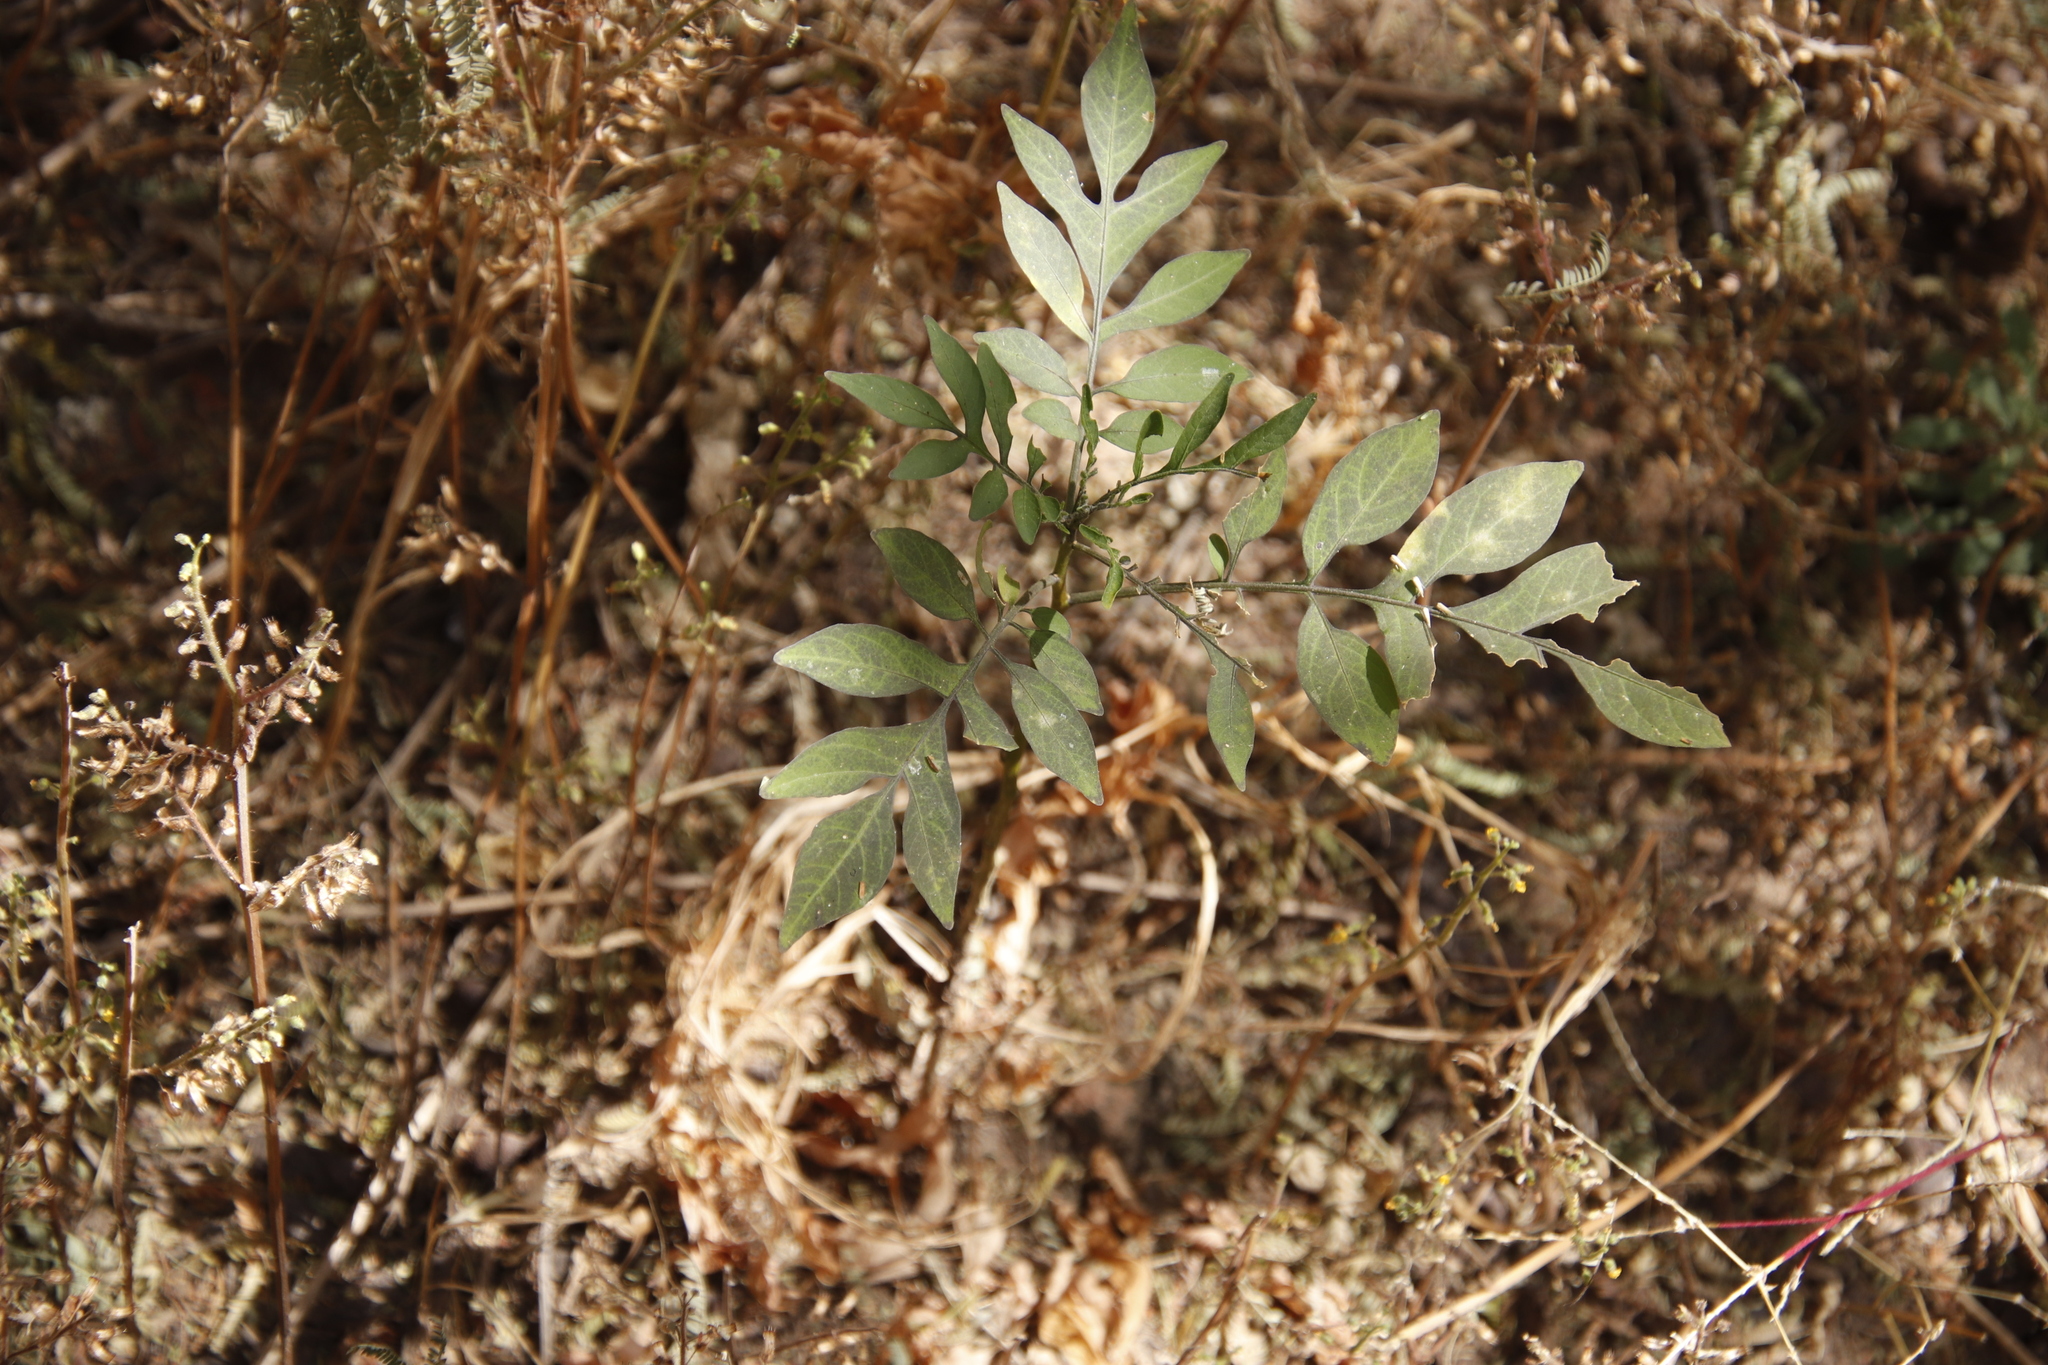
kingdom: Plantae
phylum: Tracheophyta
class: Magnoliopsida
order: Solanales
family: Solanaceae
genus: Solanum
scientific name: Solanum seaforthianum
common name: Brazilian nightshade
